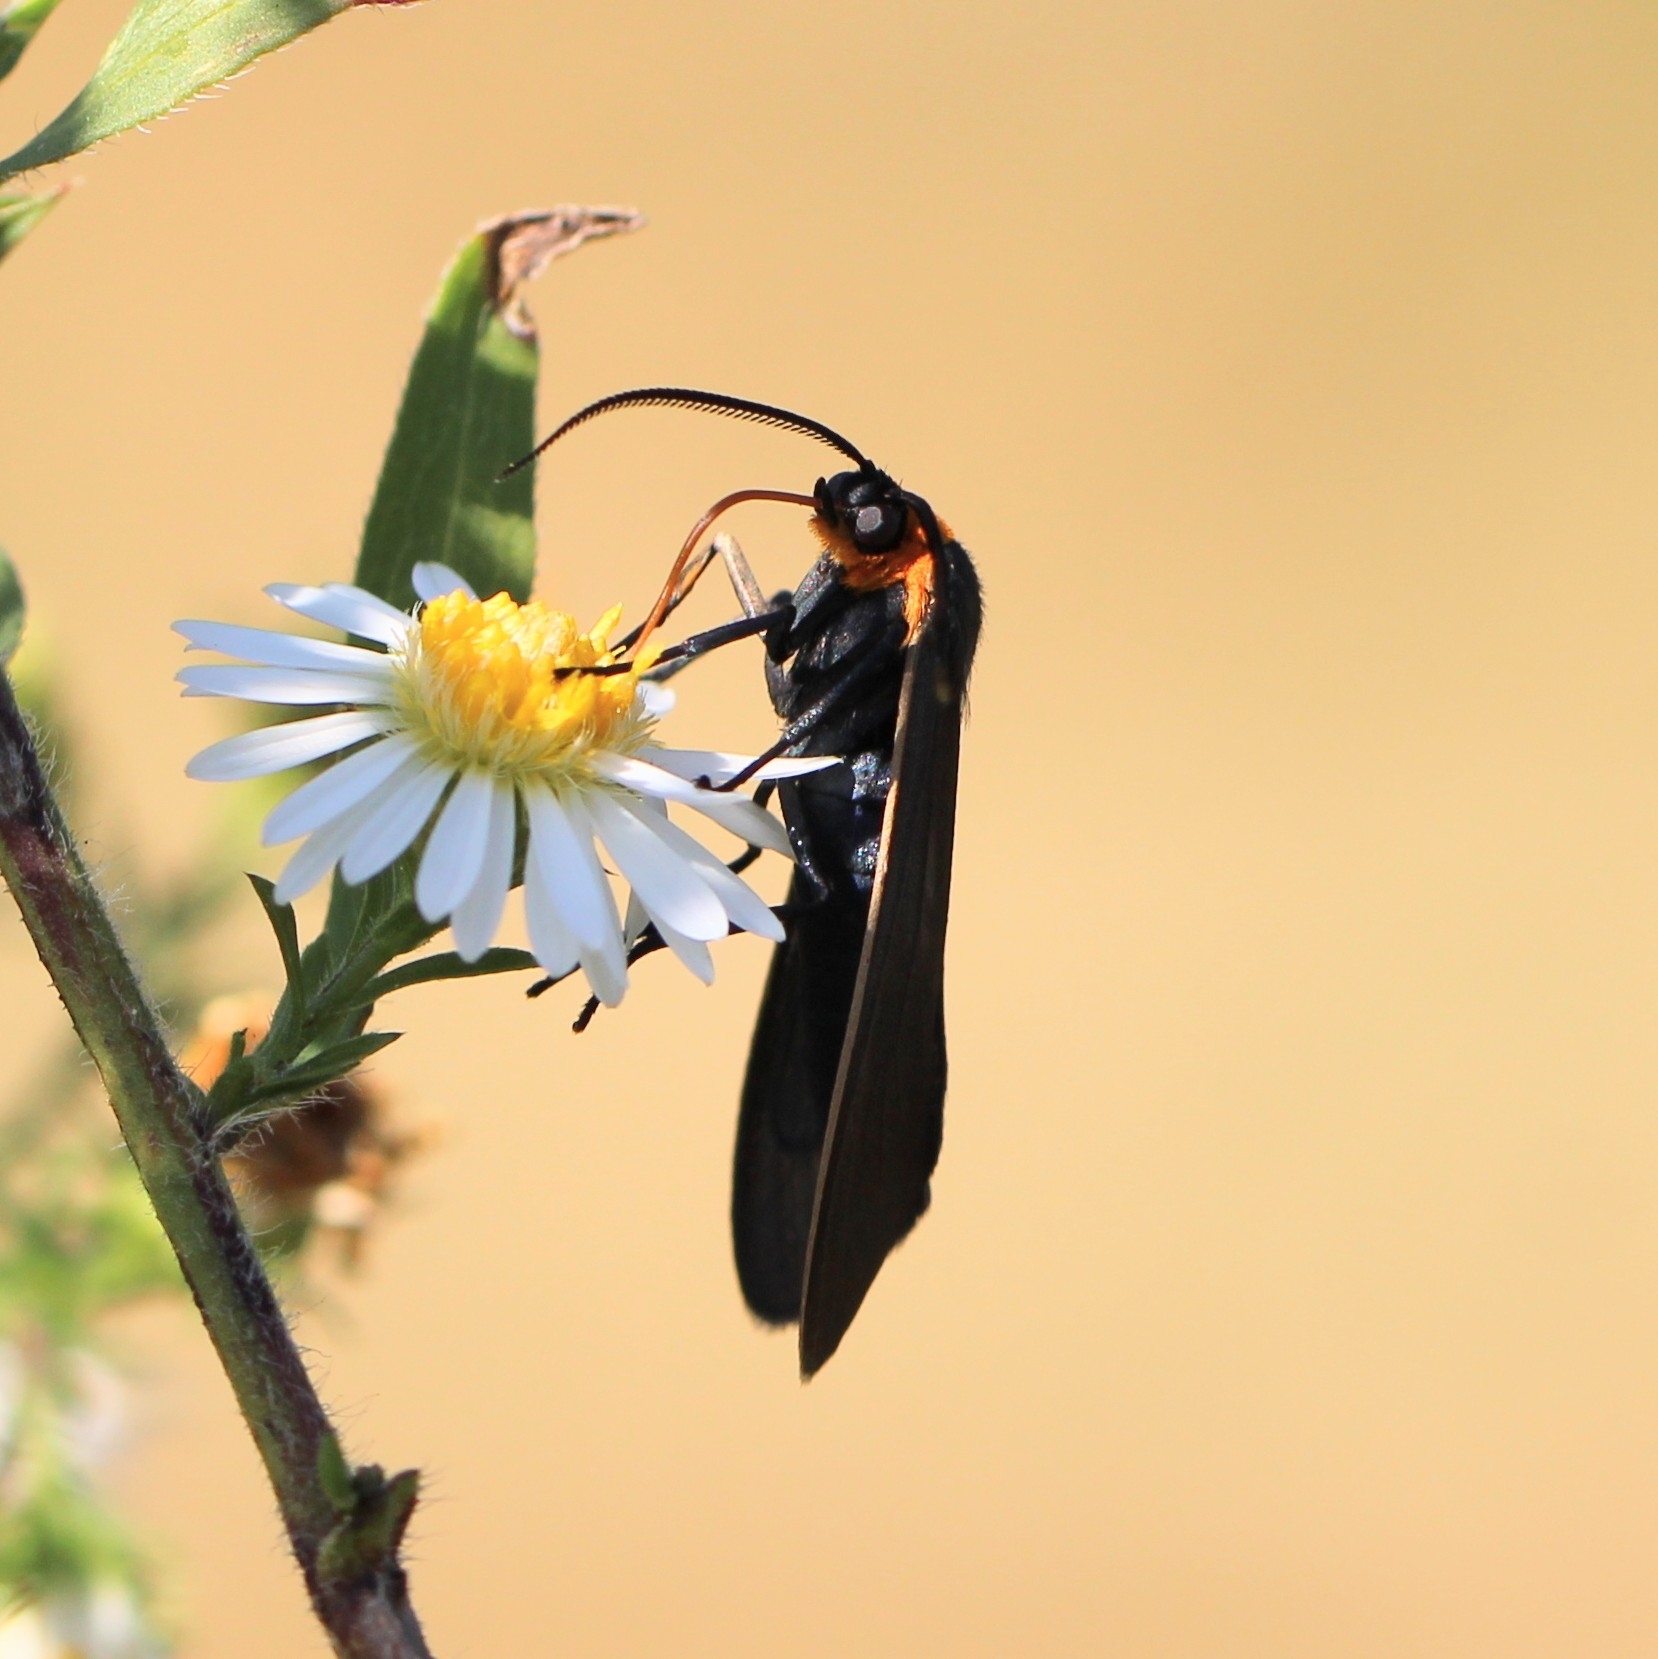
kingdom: Animalia
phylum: Arthropoda
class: Insecta
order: Lepidoptera
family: Erebidae
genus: Cisseps
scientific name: Cisseps fulvicollis
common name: Yellow-collared scape moth
